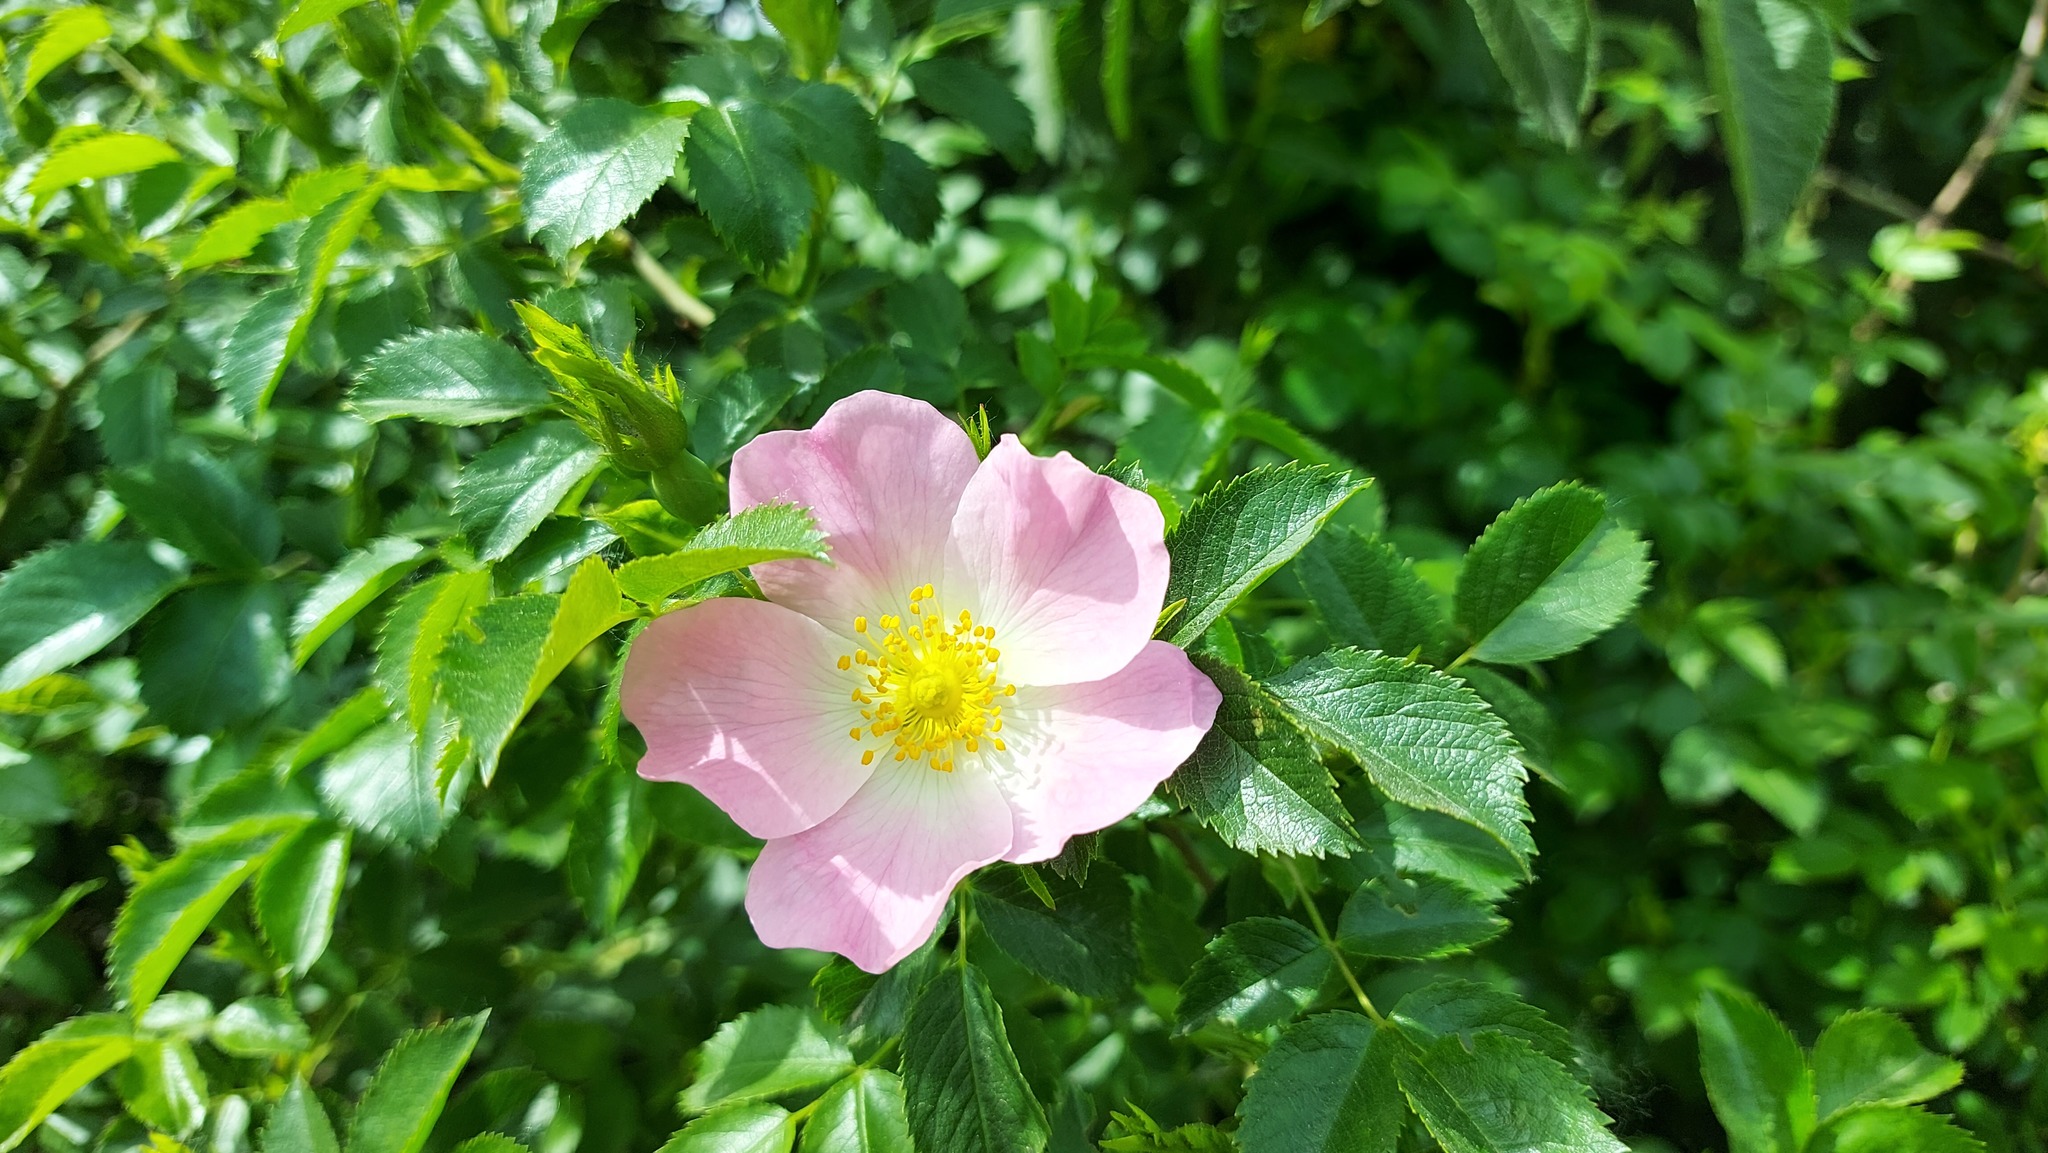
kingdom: Plantae
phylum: Tracheophyta
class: Magnoliopsida
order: Rosales
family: Rosaceae
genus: Rosa
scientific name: Rosa canina
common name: Dog rose
